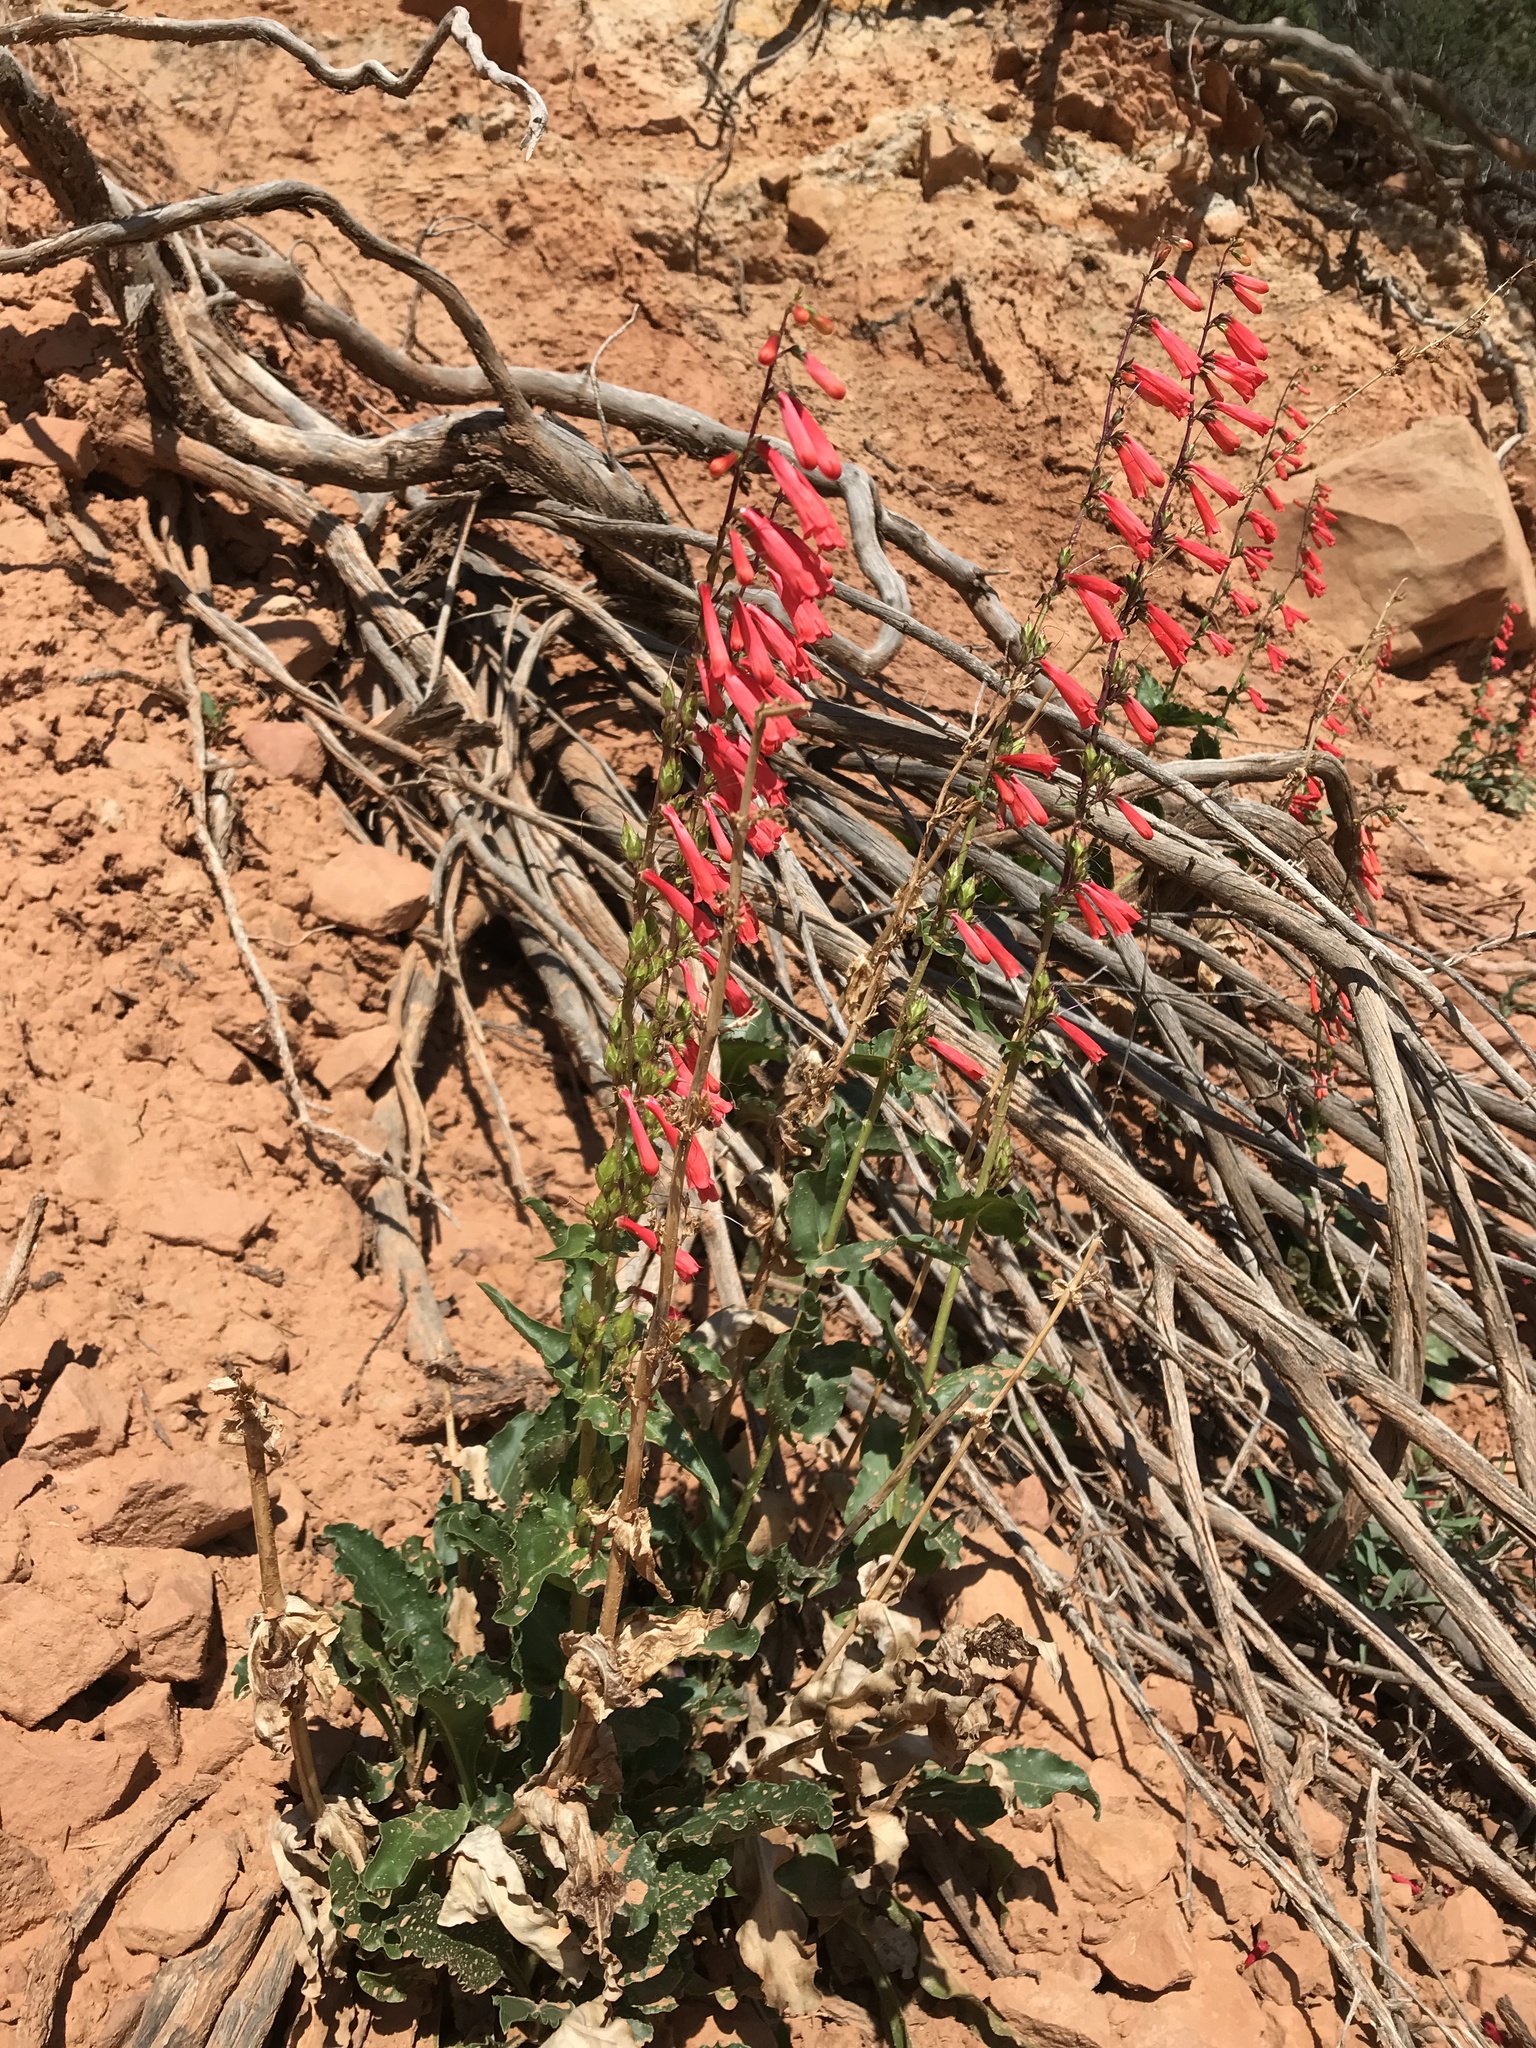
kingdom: Plantae
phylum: Tracheophyta
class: Magnoliopsida
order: Lamiales
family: Plantaginaceae
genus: Penstemon
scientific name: Penstemon eatonii
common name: Eaton's penstemon
